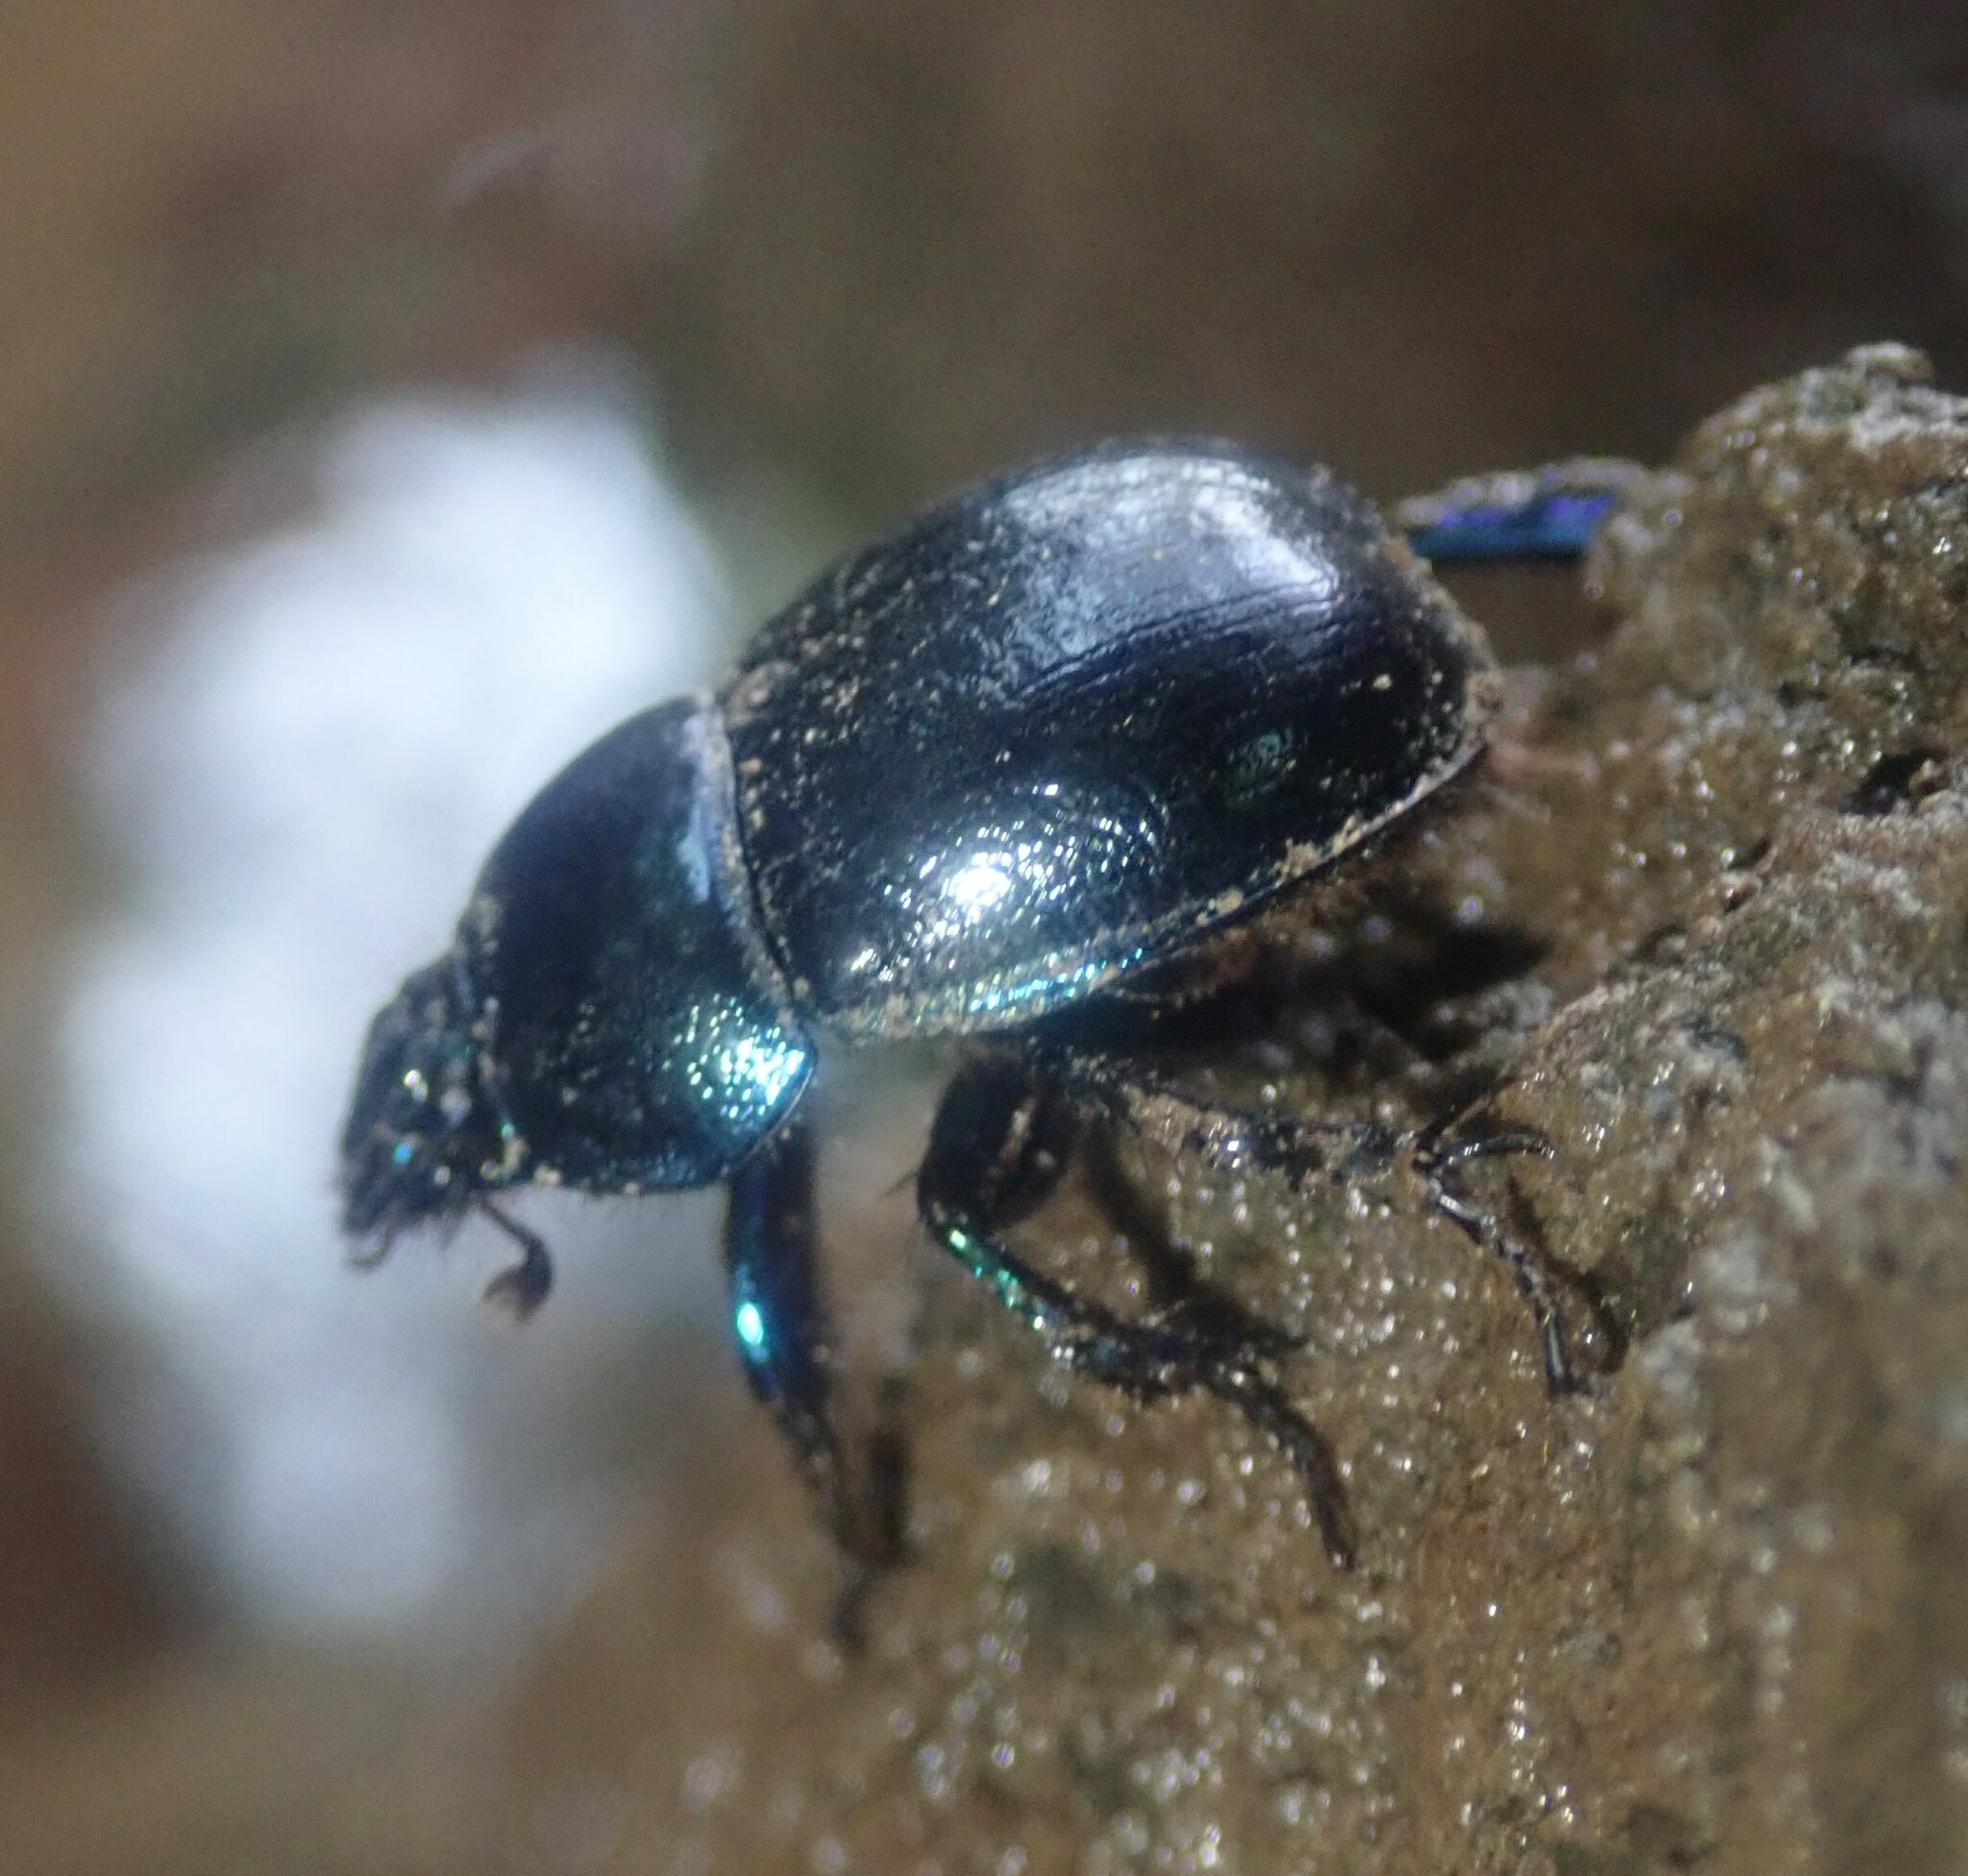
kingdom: Animalia
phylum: Arthropoda
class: Insecta
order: Coleoptera
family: Geotrupidae
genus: Anoplotrupes
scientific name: Anoplotrupes stercorosus
